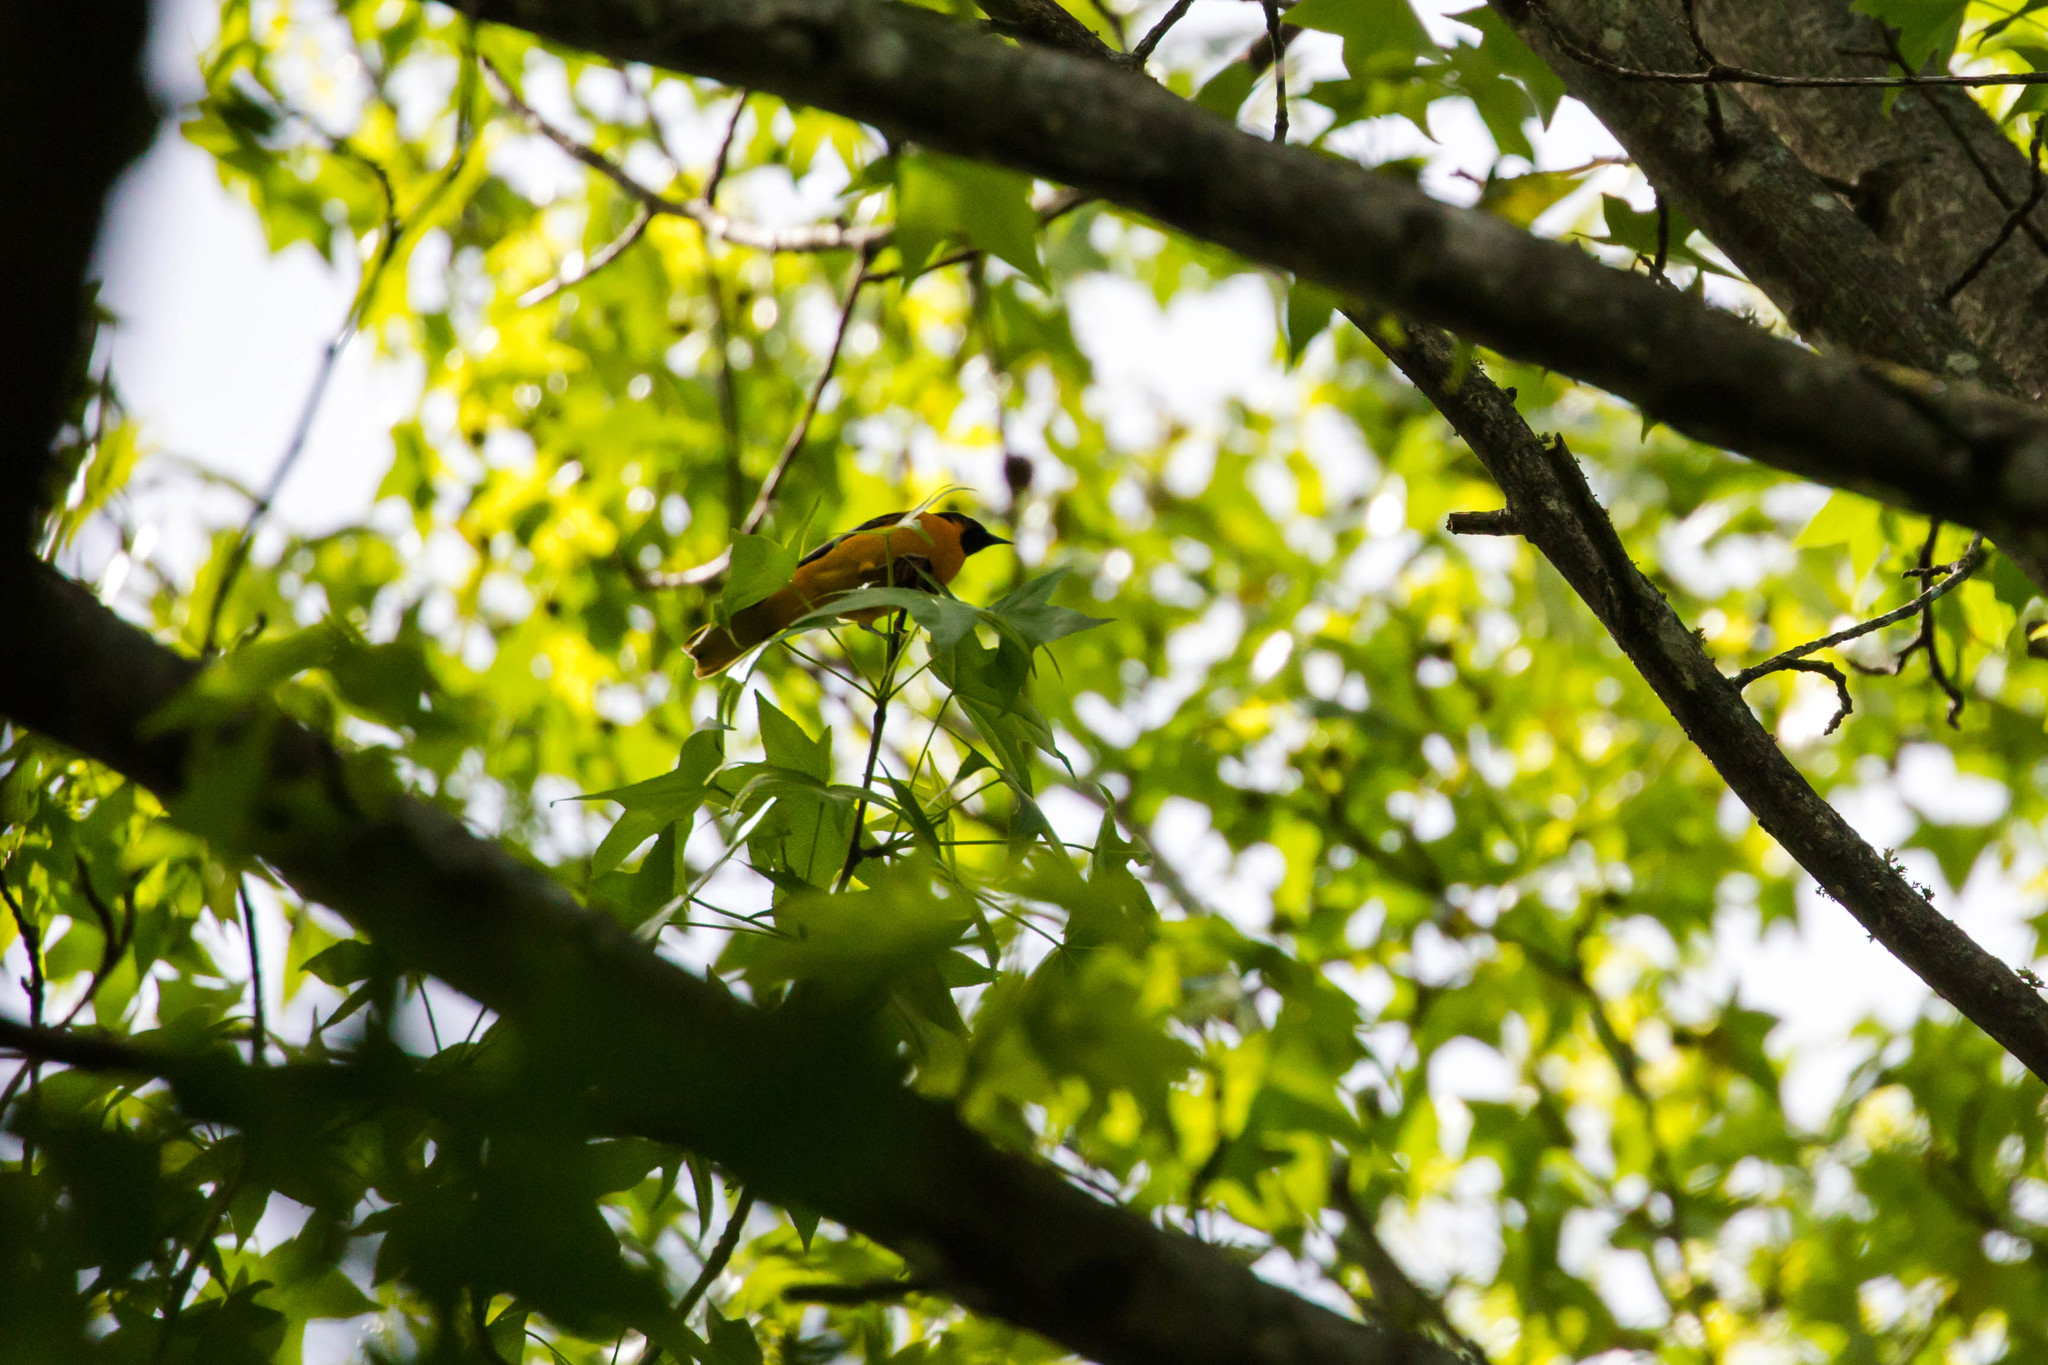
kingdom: Animalia
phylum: Chordata
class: Aves
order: Passeriformes
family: Icteridae
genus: Icterus
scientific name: Icterus galbula
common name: Baltimore oriole
